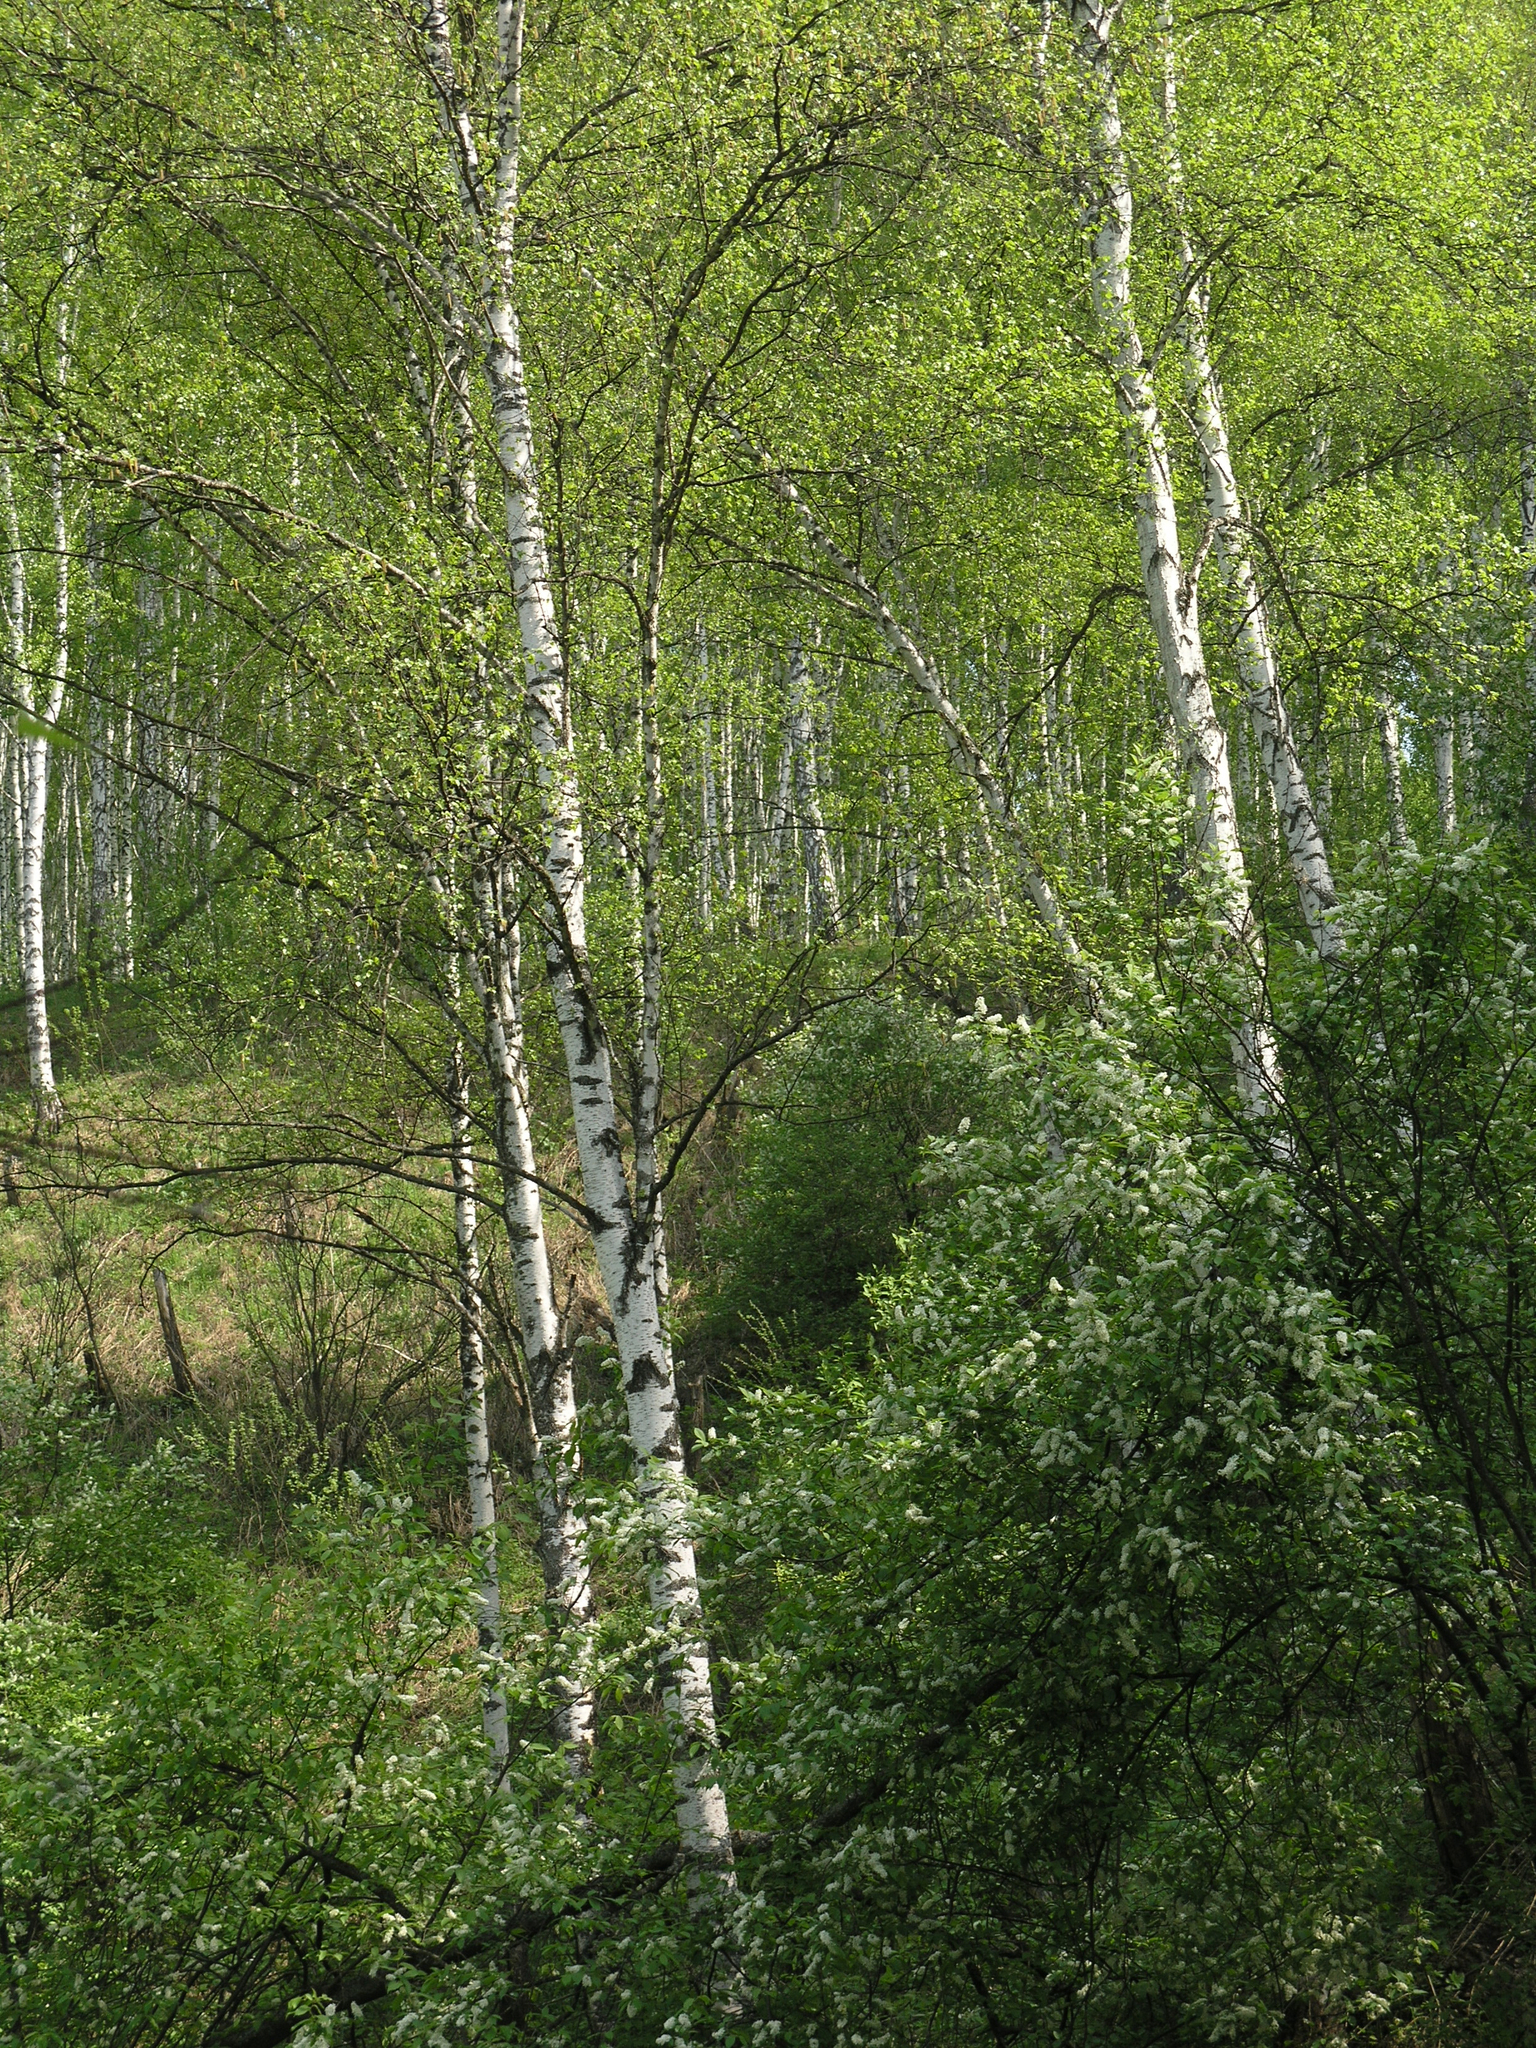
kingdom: Plantae
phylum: Tracheophyta
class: Magnoliopsida
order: Fagales
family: Betulaceae
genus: Betula
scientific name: Betula pendula
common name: Silver birch
